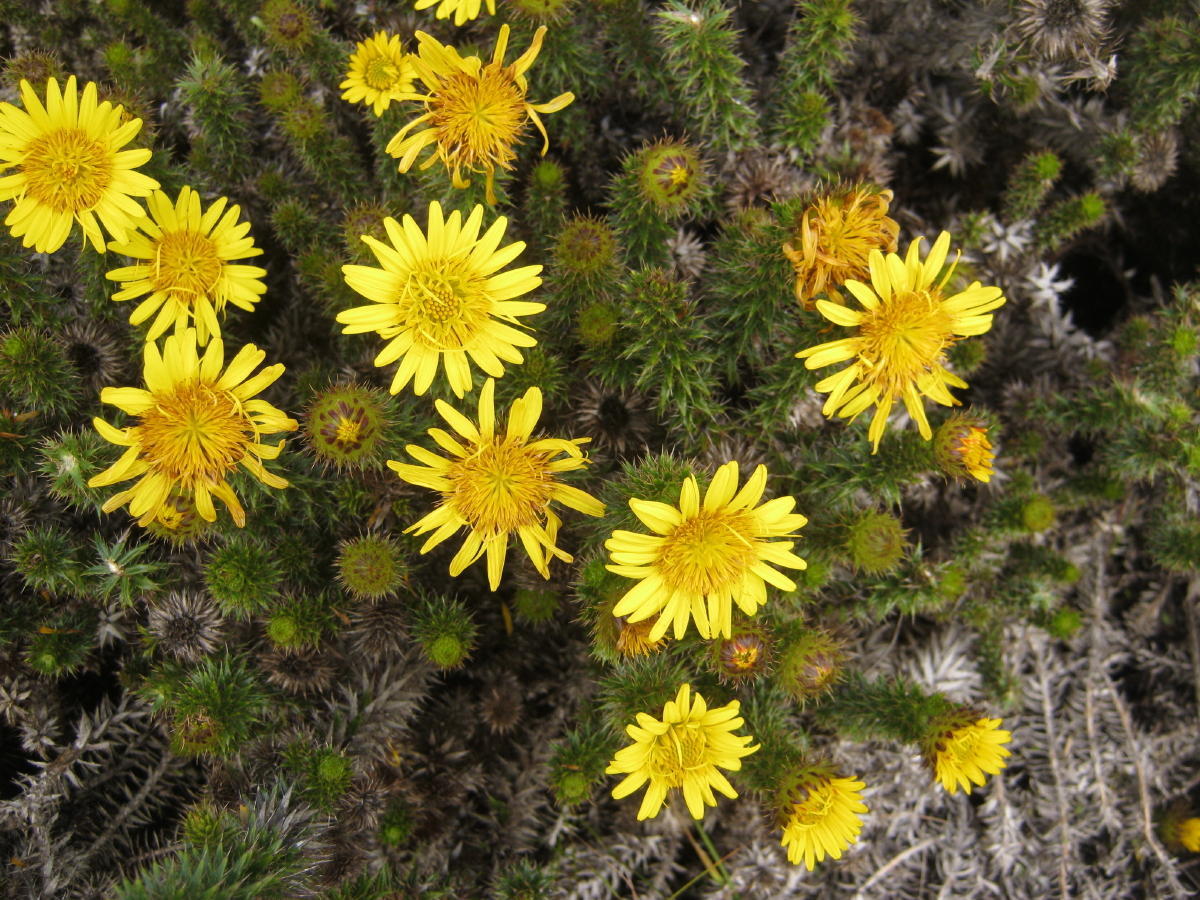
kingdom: Plantae
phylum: Tracheophyta
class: Magnoliopsida
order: Asterales
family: Asteraceae
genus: Cullumia
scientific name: Cullumia carlinoides
